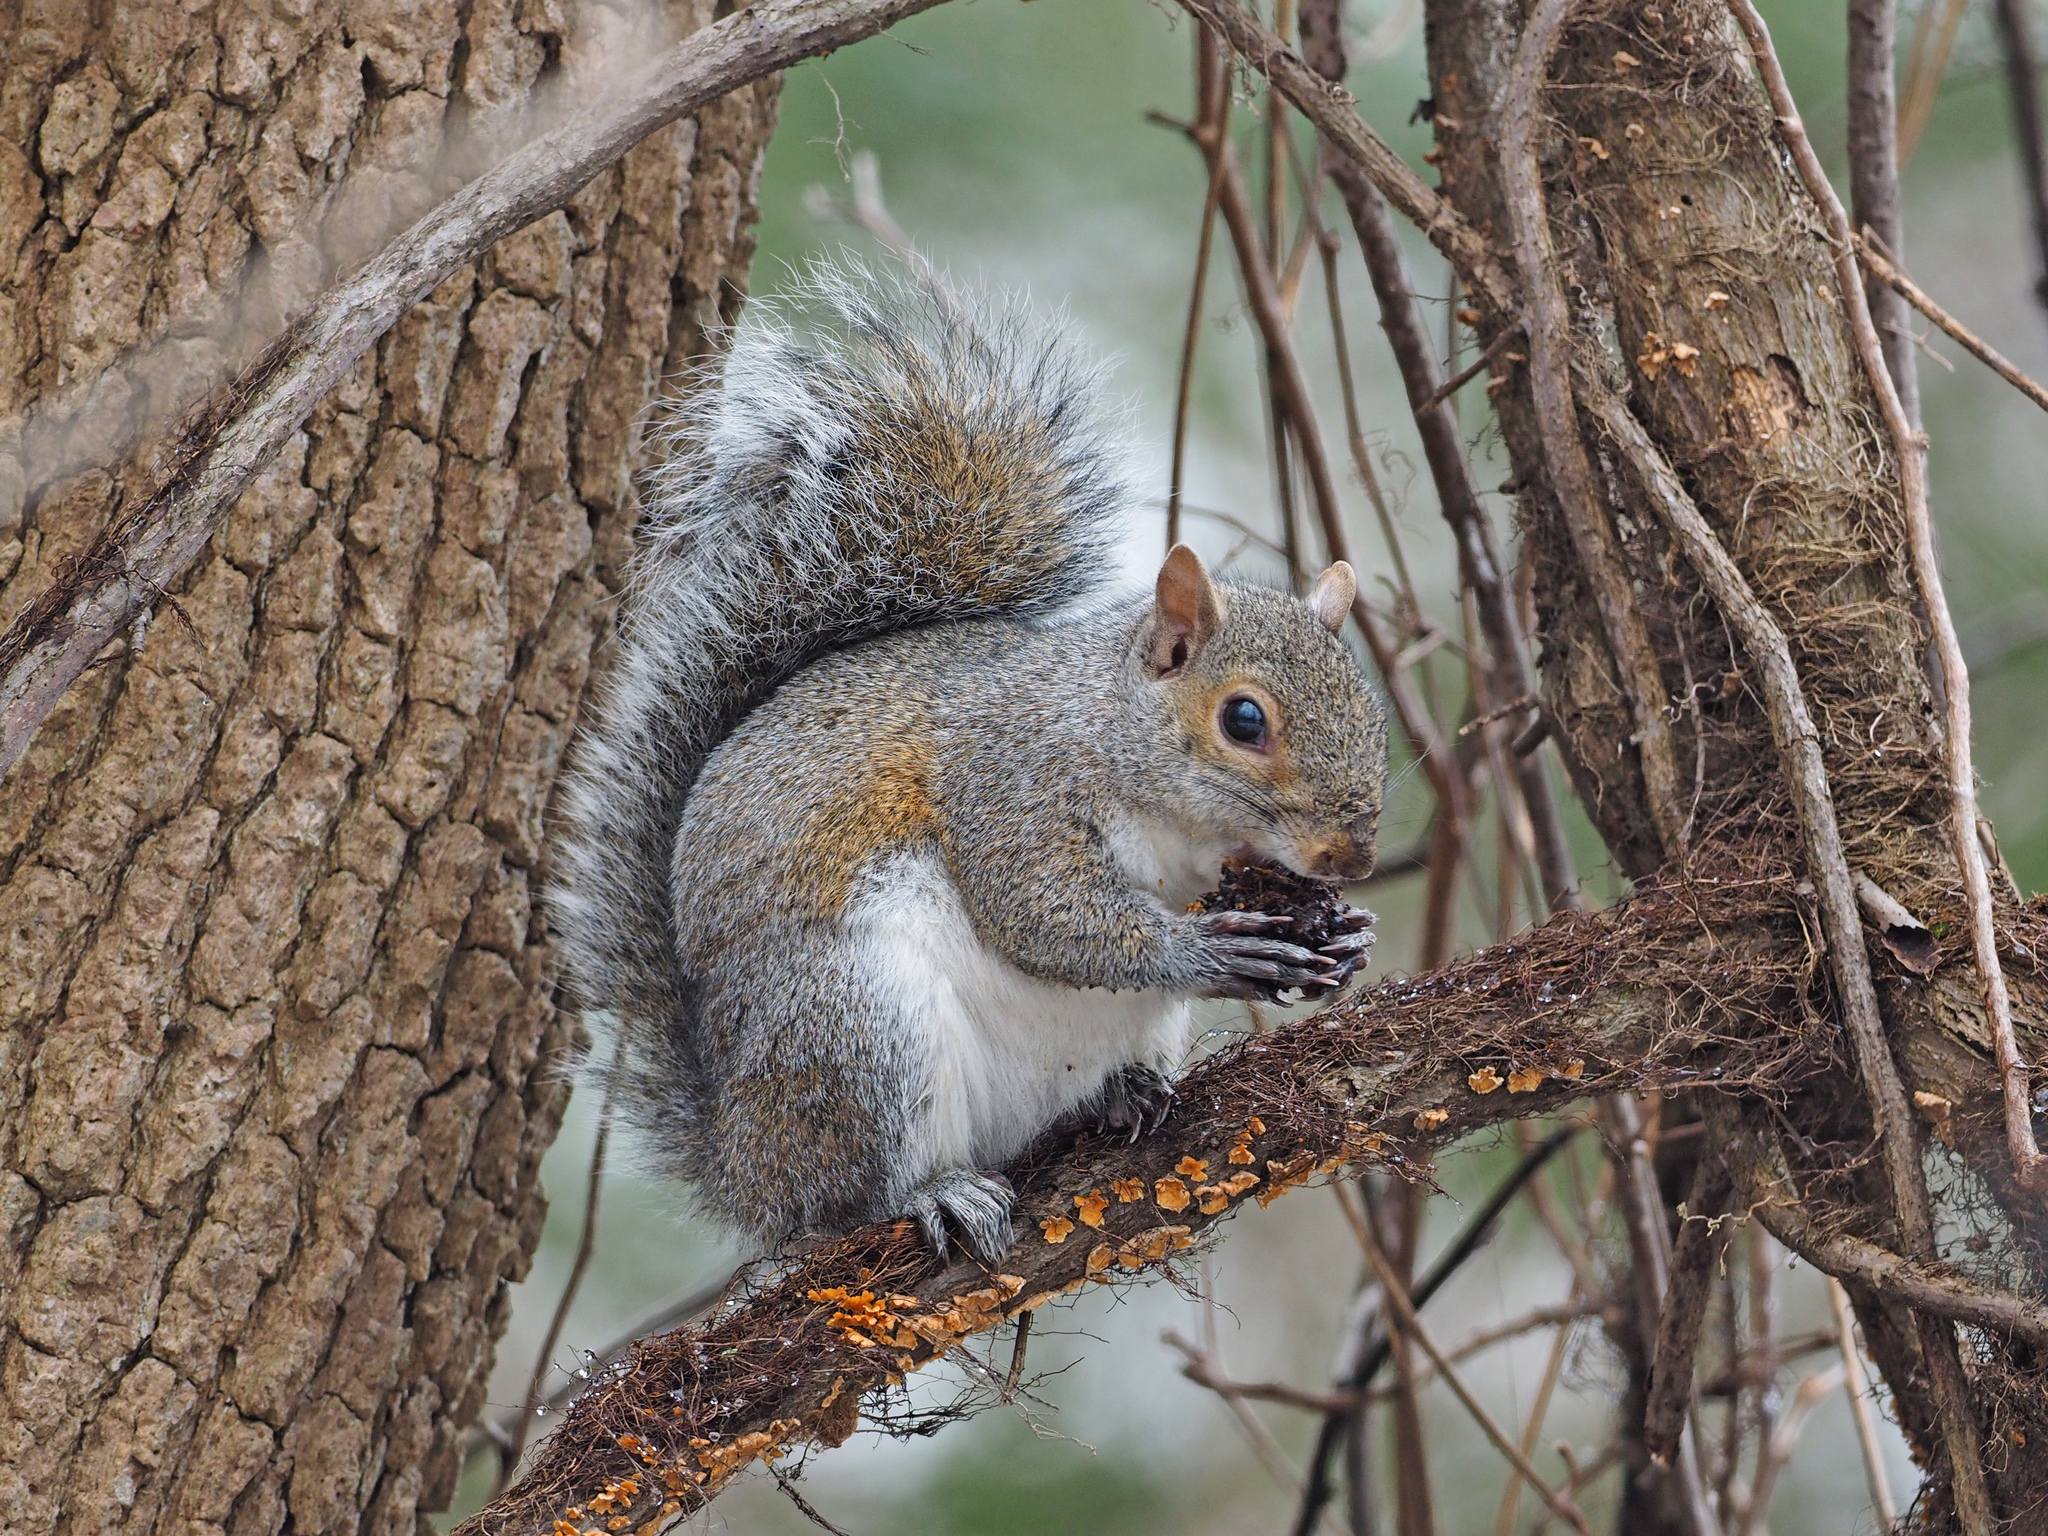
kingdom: Animalia
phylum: Chordata
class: Mammalia
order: Rodentia
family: Sciuridae
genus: Sciurus
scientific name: Sciurus carolinensis
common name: Eastern gray squirrel
